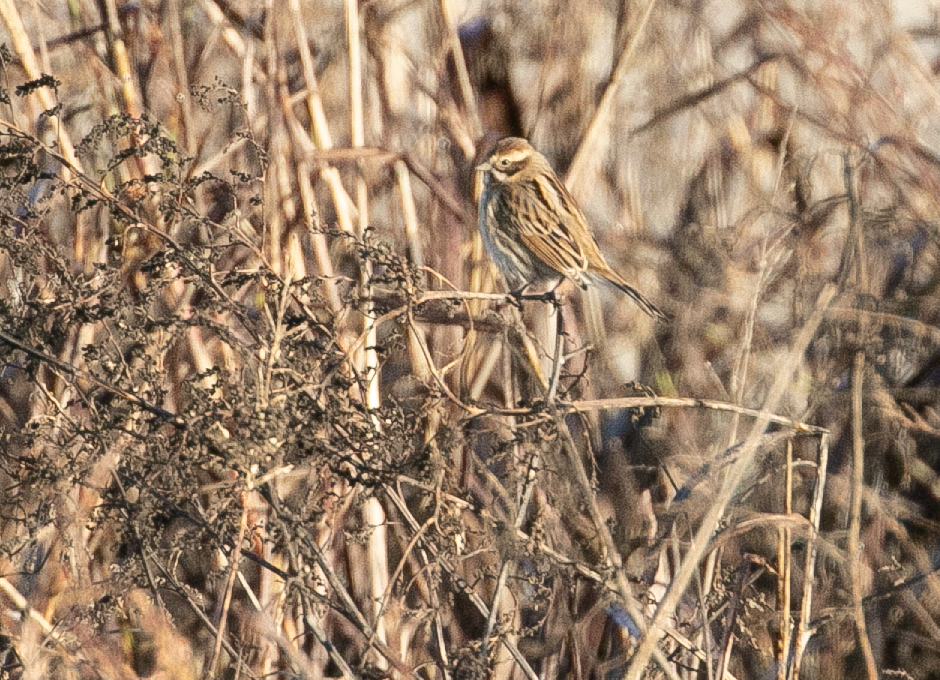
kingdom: Animalia
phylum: Chordata
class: Aves
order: Passeriformes
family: Emberizidae
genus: Emberiza
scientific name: Emberiza schoeniclus
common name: Reed bunting
